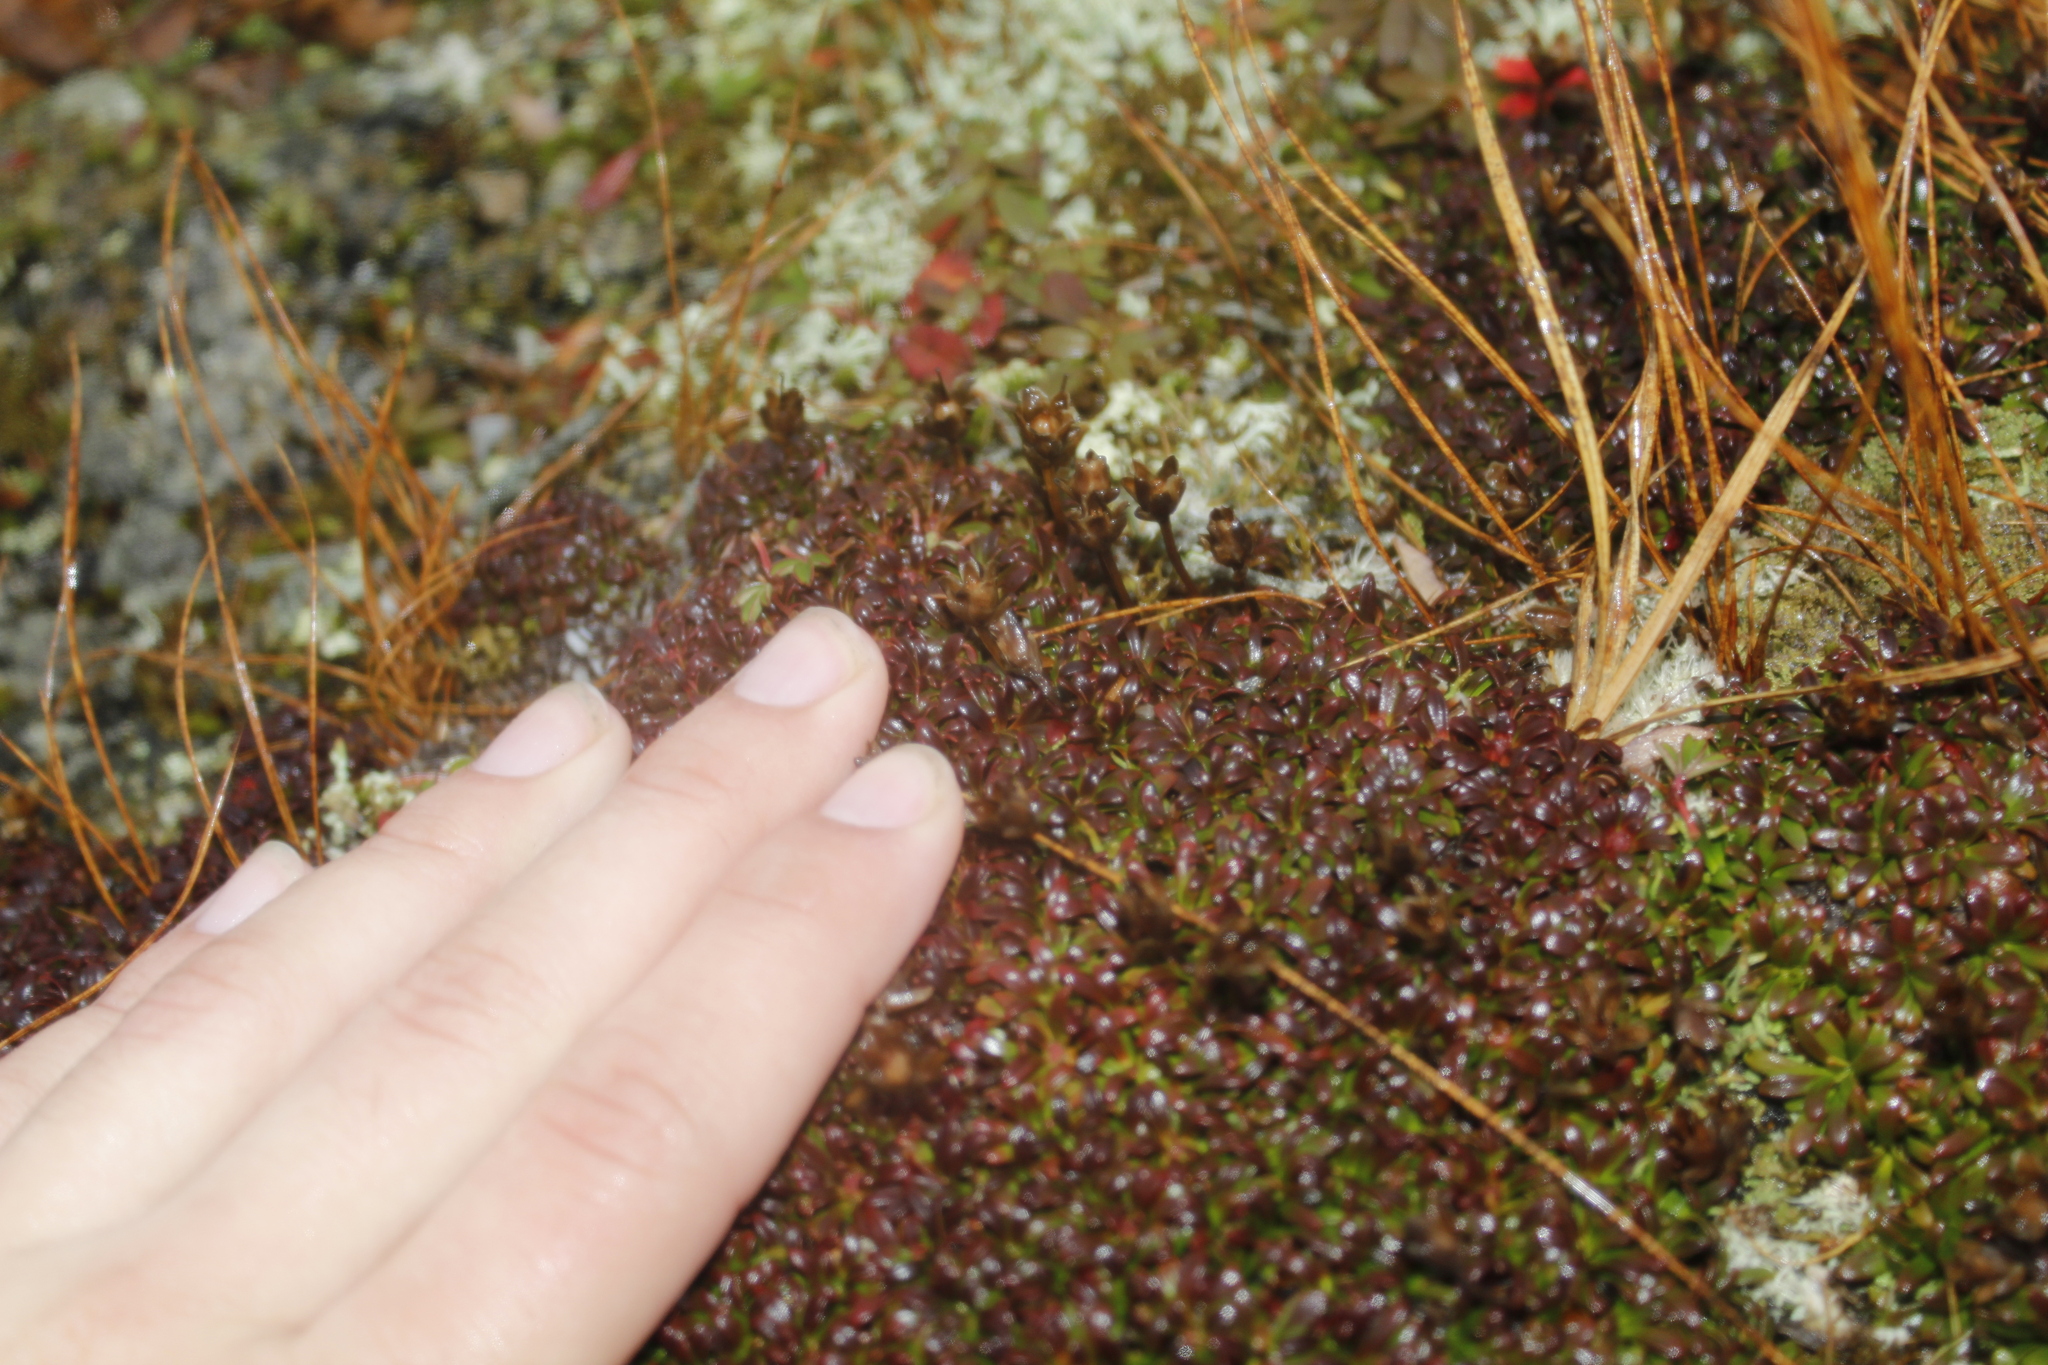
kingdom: Plantae
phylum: Tracheophyta
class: Magnoliopsida
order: Ericales
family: Diapensiaceae
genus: Diapensia
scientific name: Diapensia lapponica
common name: Diapensia
